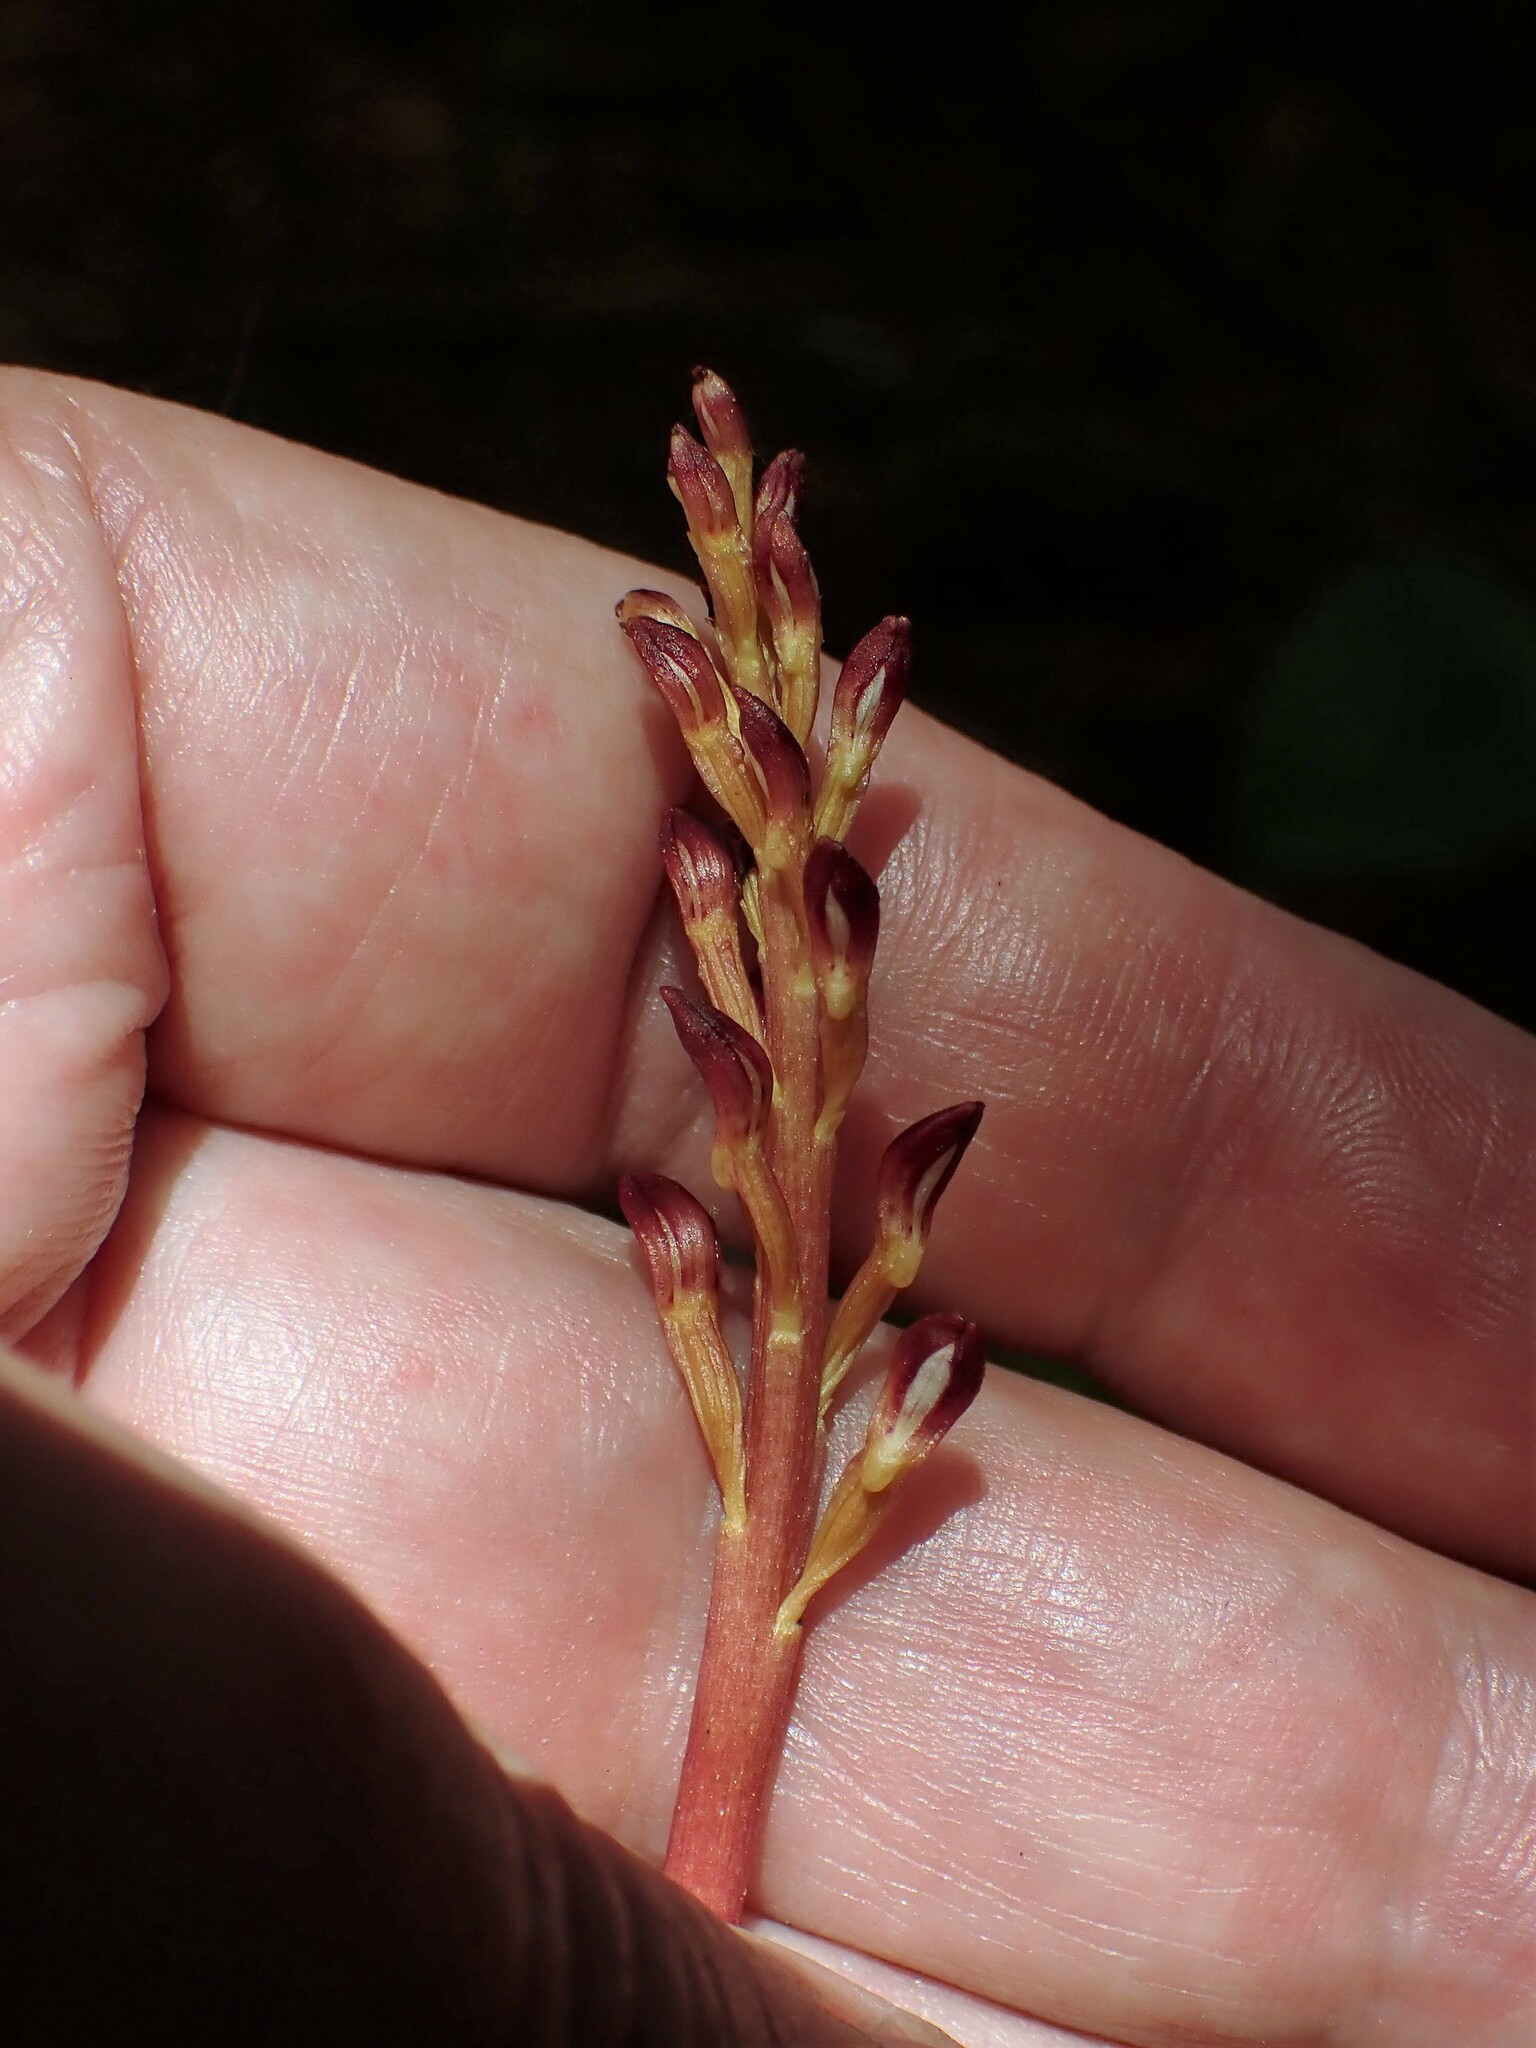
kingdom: Plantae
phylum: Tracheophyta
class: Liliopsida
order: Asparagales
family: Orchidaceae
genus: Corallorhiza
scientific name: Corallorhiza maculata
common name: Spotted coralroot
